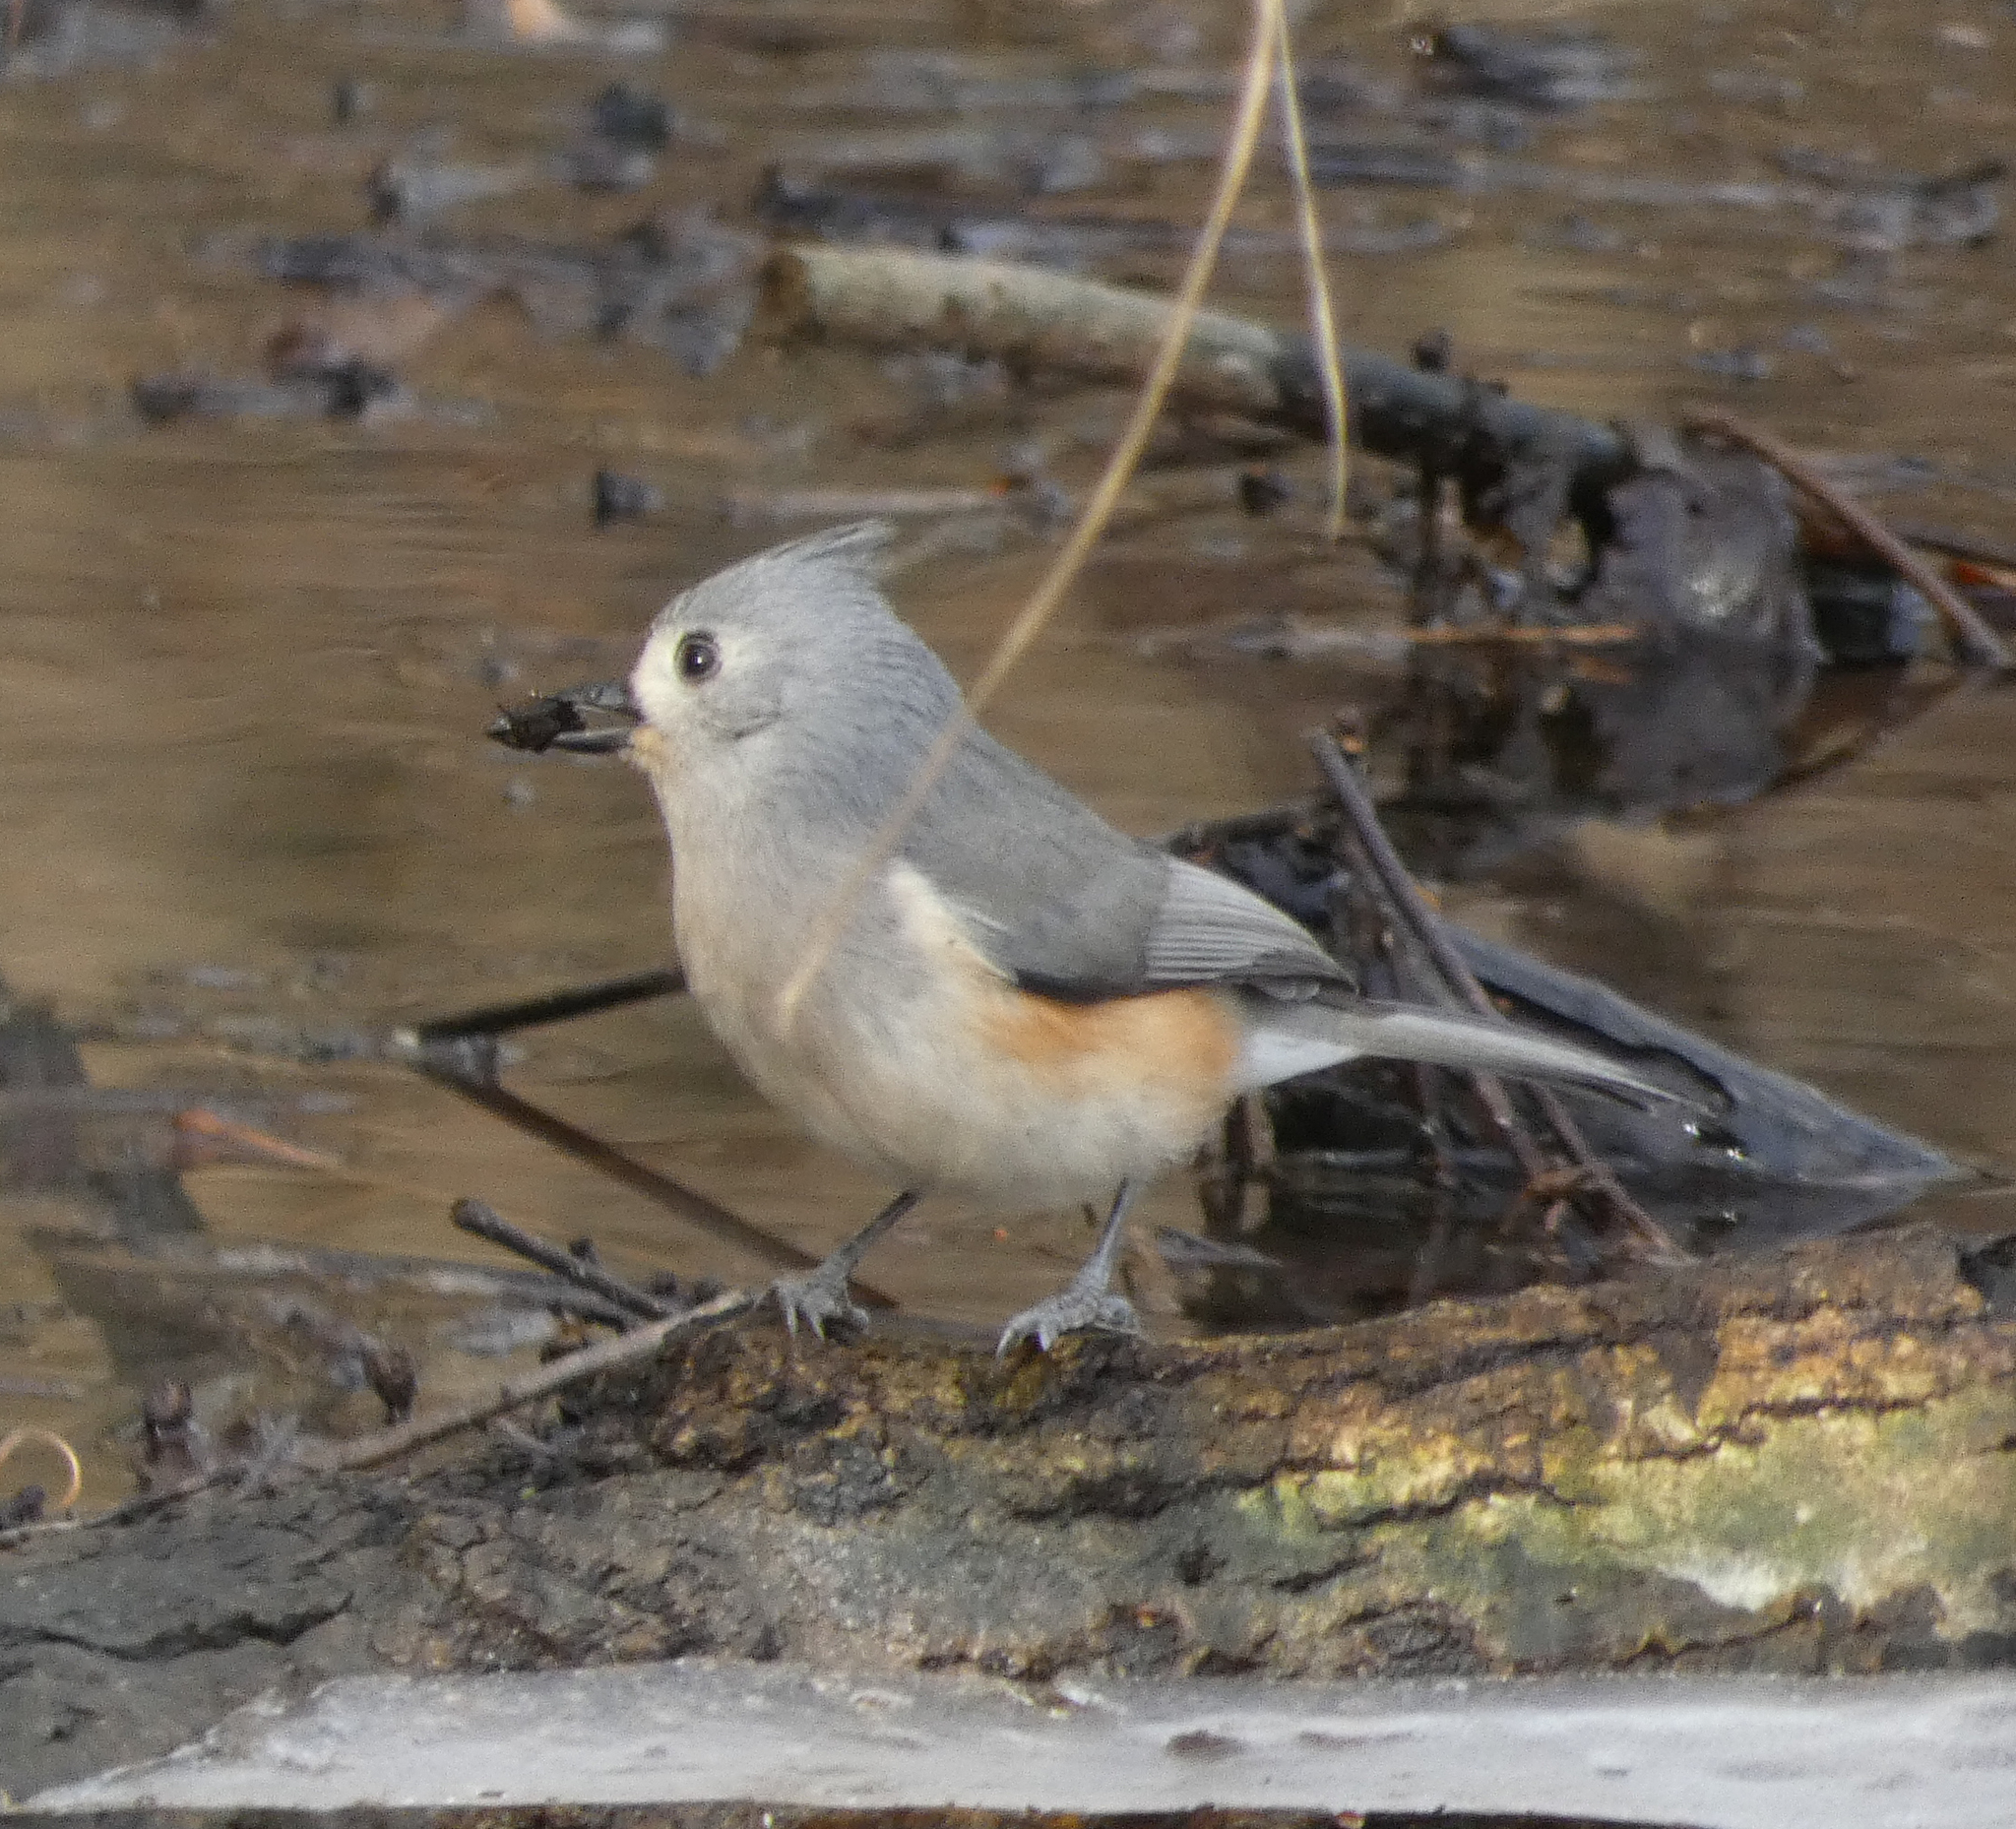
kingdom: Animalia
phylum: Chordata
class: Aves
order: Passeriformes
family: Paridae
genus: Baeolophus
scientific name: Baeolophus bicolor
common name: Tufted titmouse
